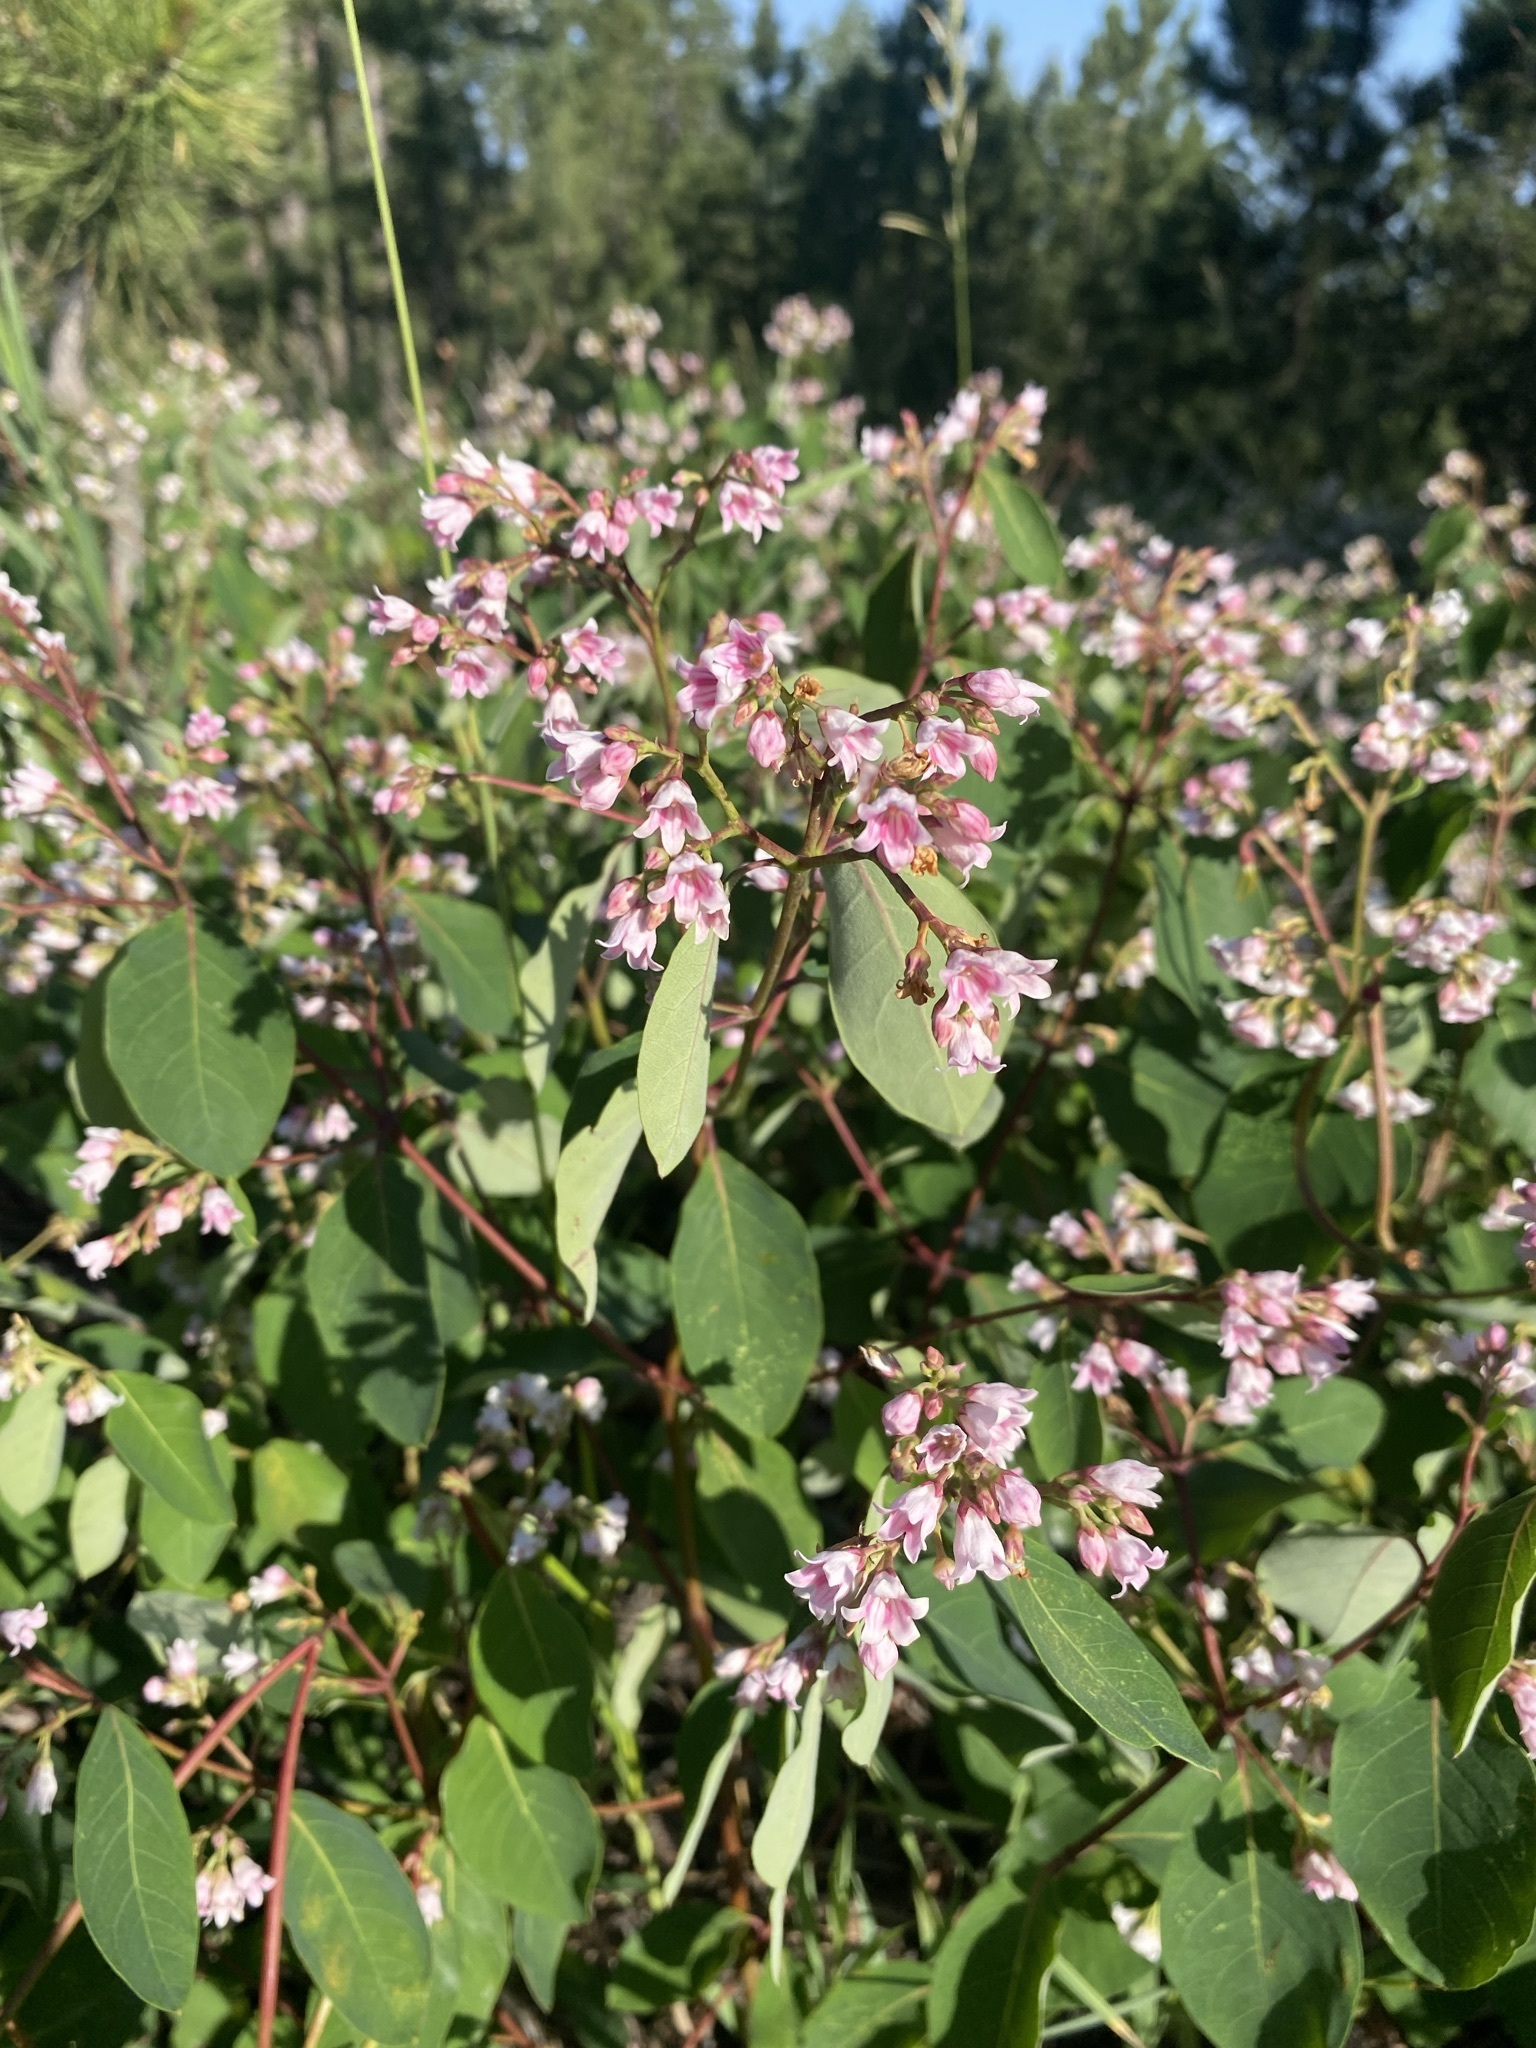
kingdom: Plantae
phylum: Tracheophyta
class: Magnoliopsida
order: Gentianales
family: Apocynaceae
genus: Apocynum
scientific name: Apocynum androsaemifolium
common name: Spreading dogbane
